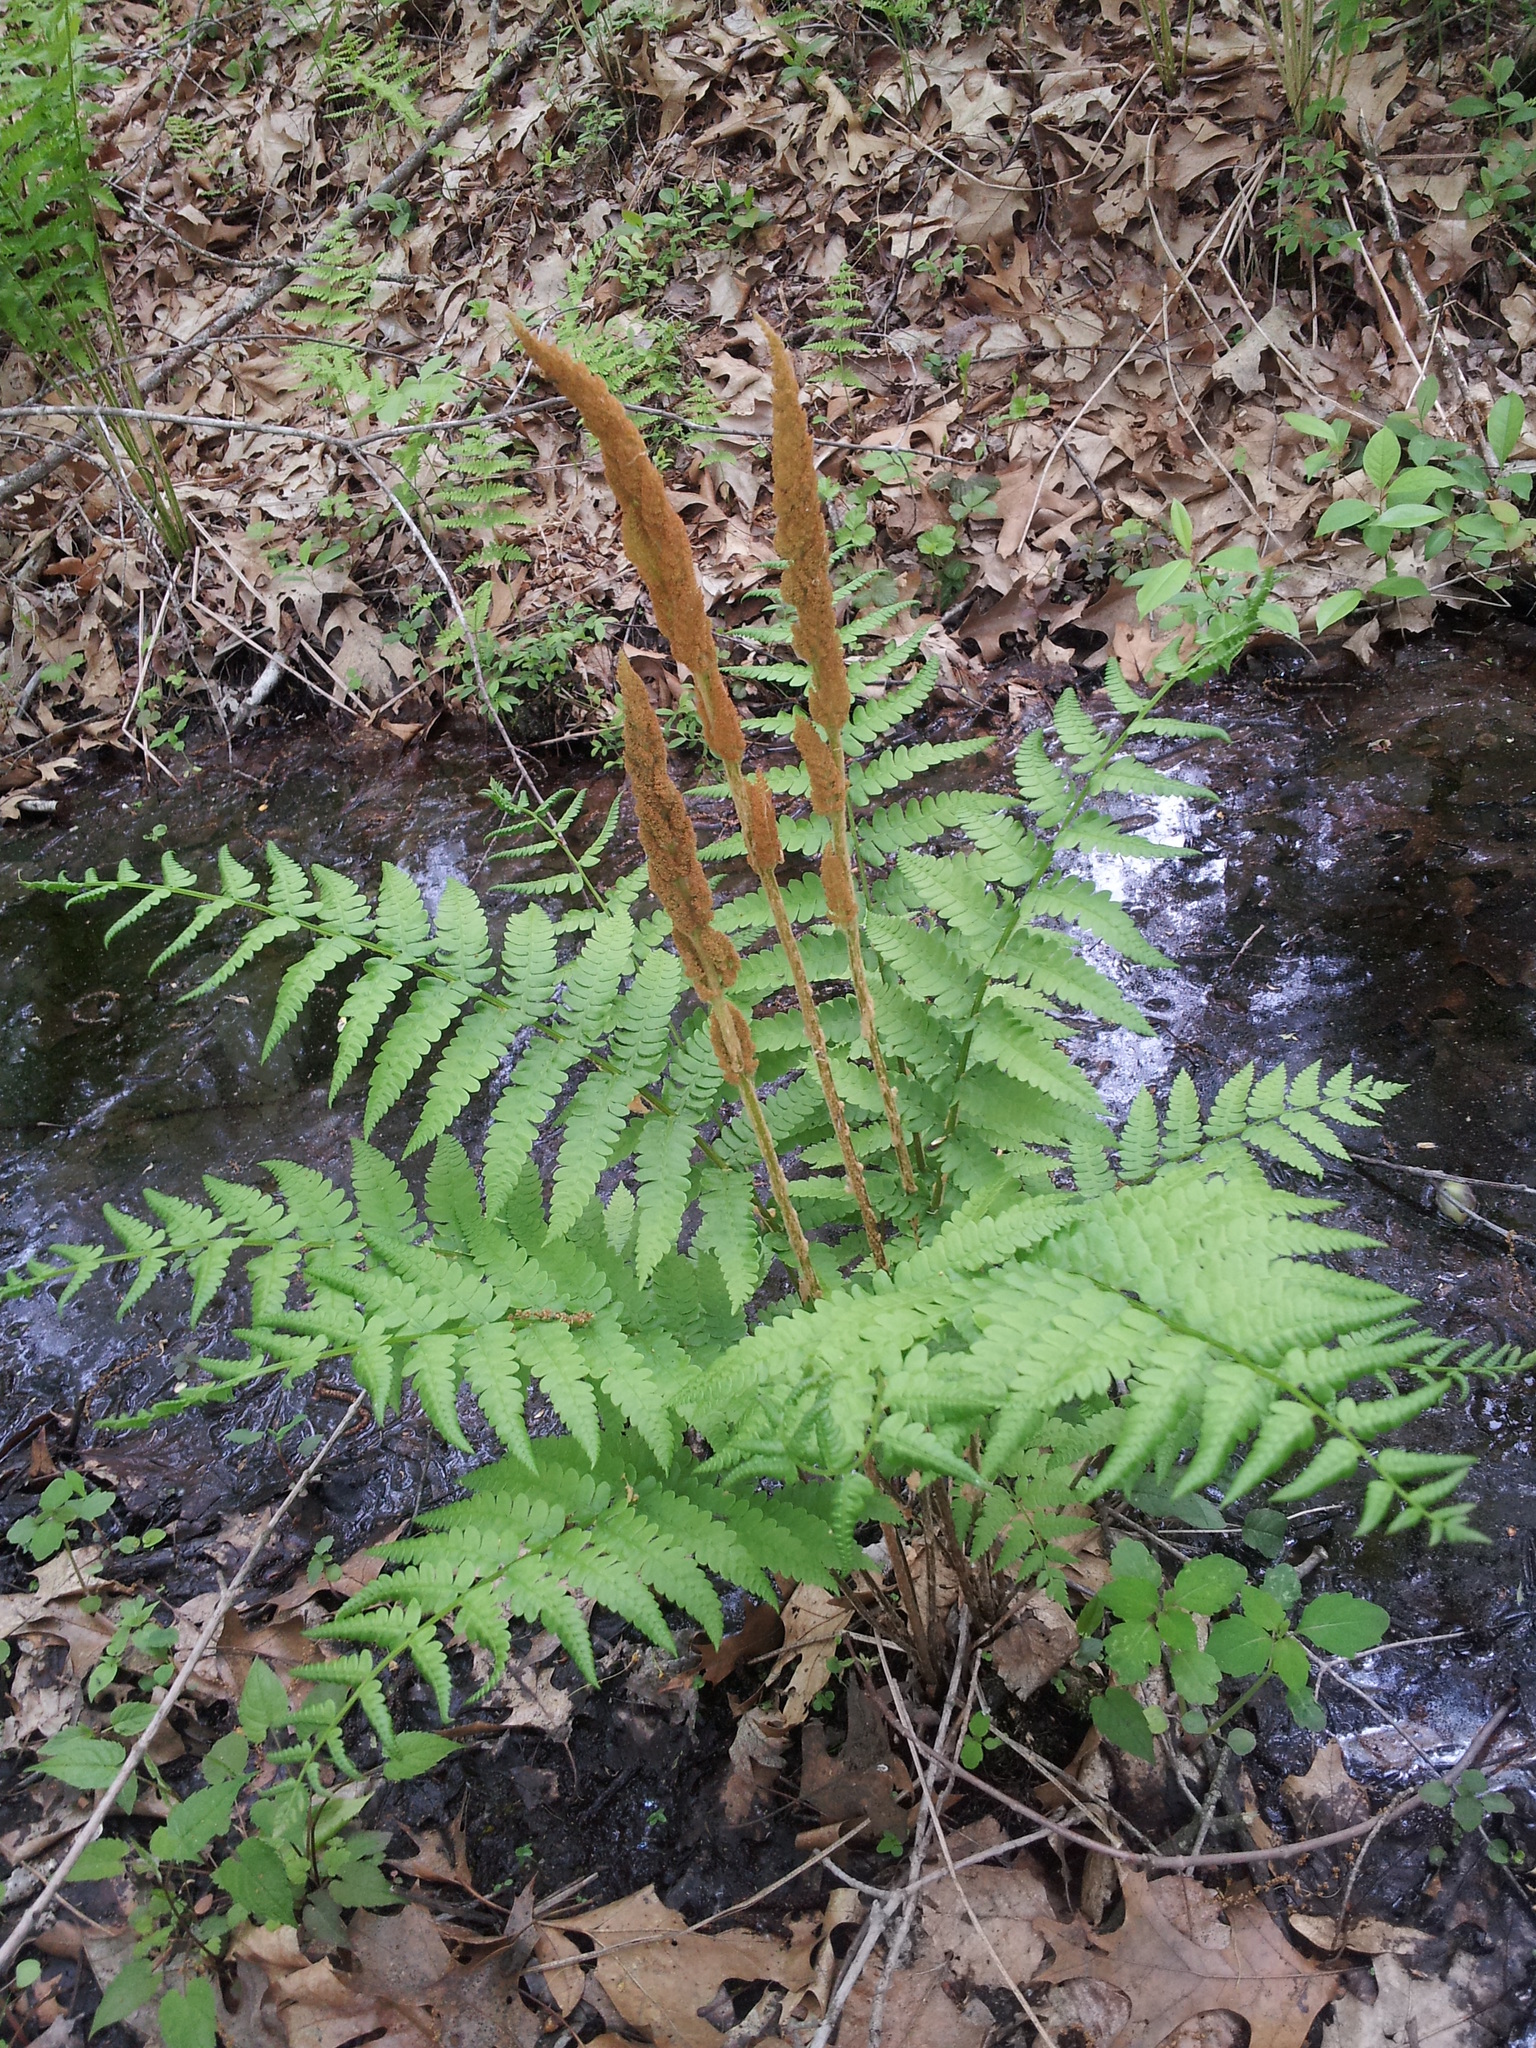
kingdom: Plantae
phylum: Tracheophyta
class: Polypodiopsida
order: Osmundales
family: Osmundaceae
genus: Osmundastrum
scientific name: Osmundastrum cinnamomeum
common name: Cinnamon fern
